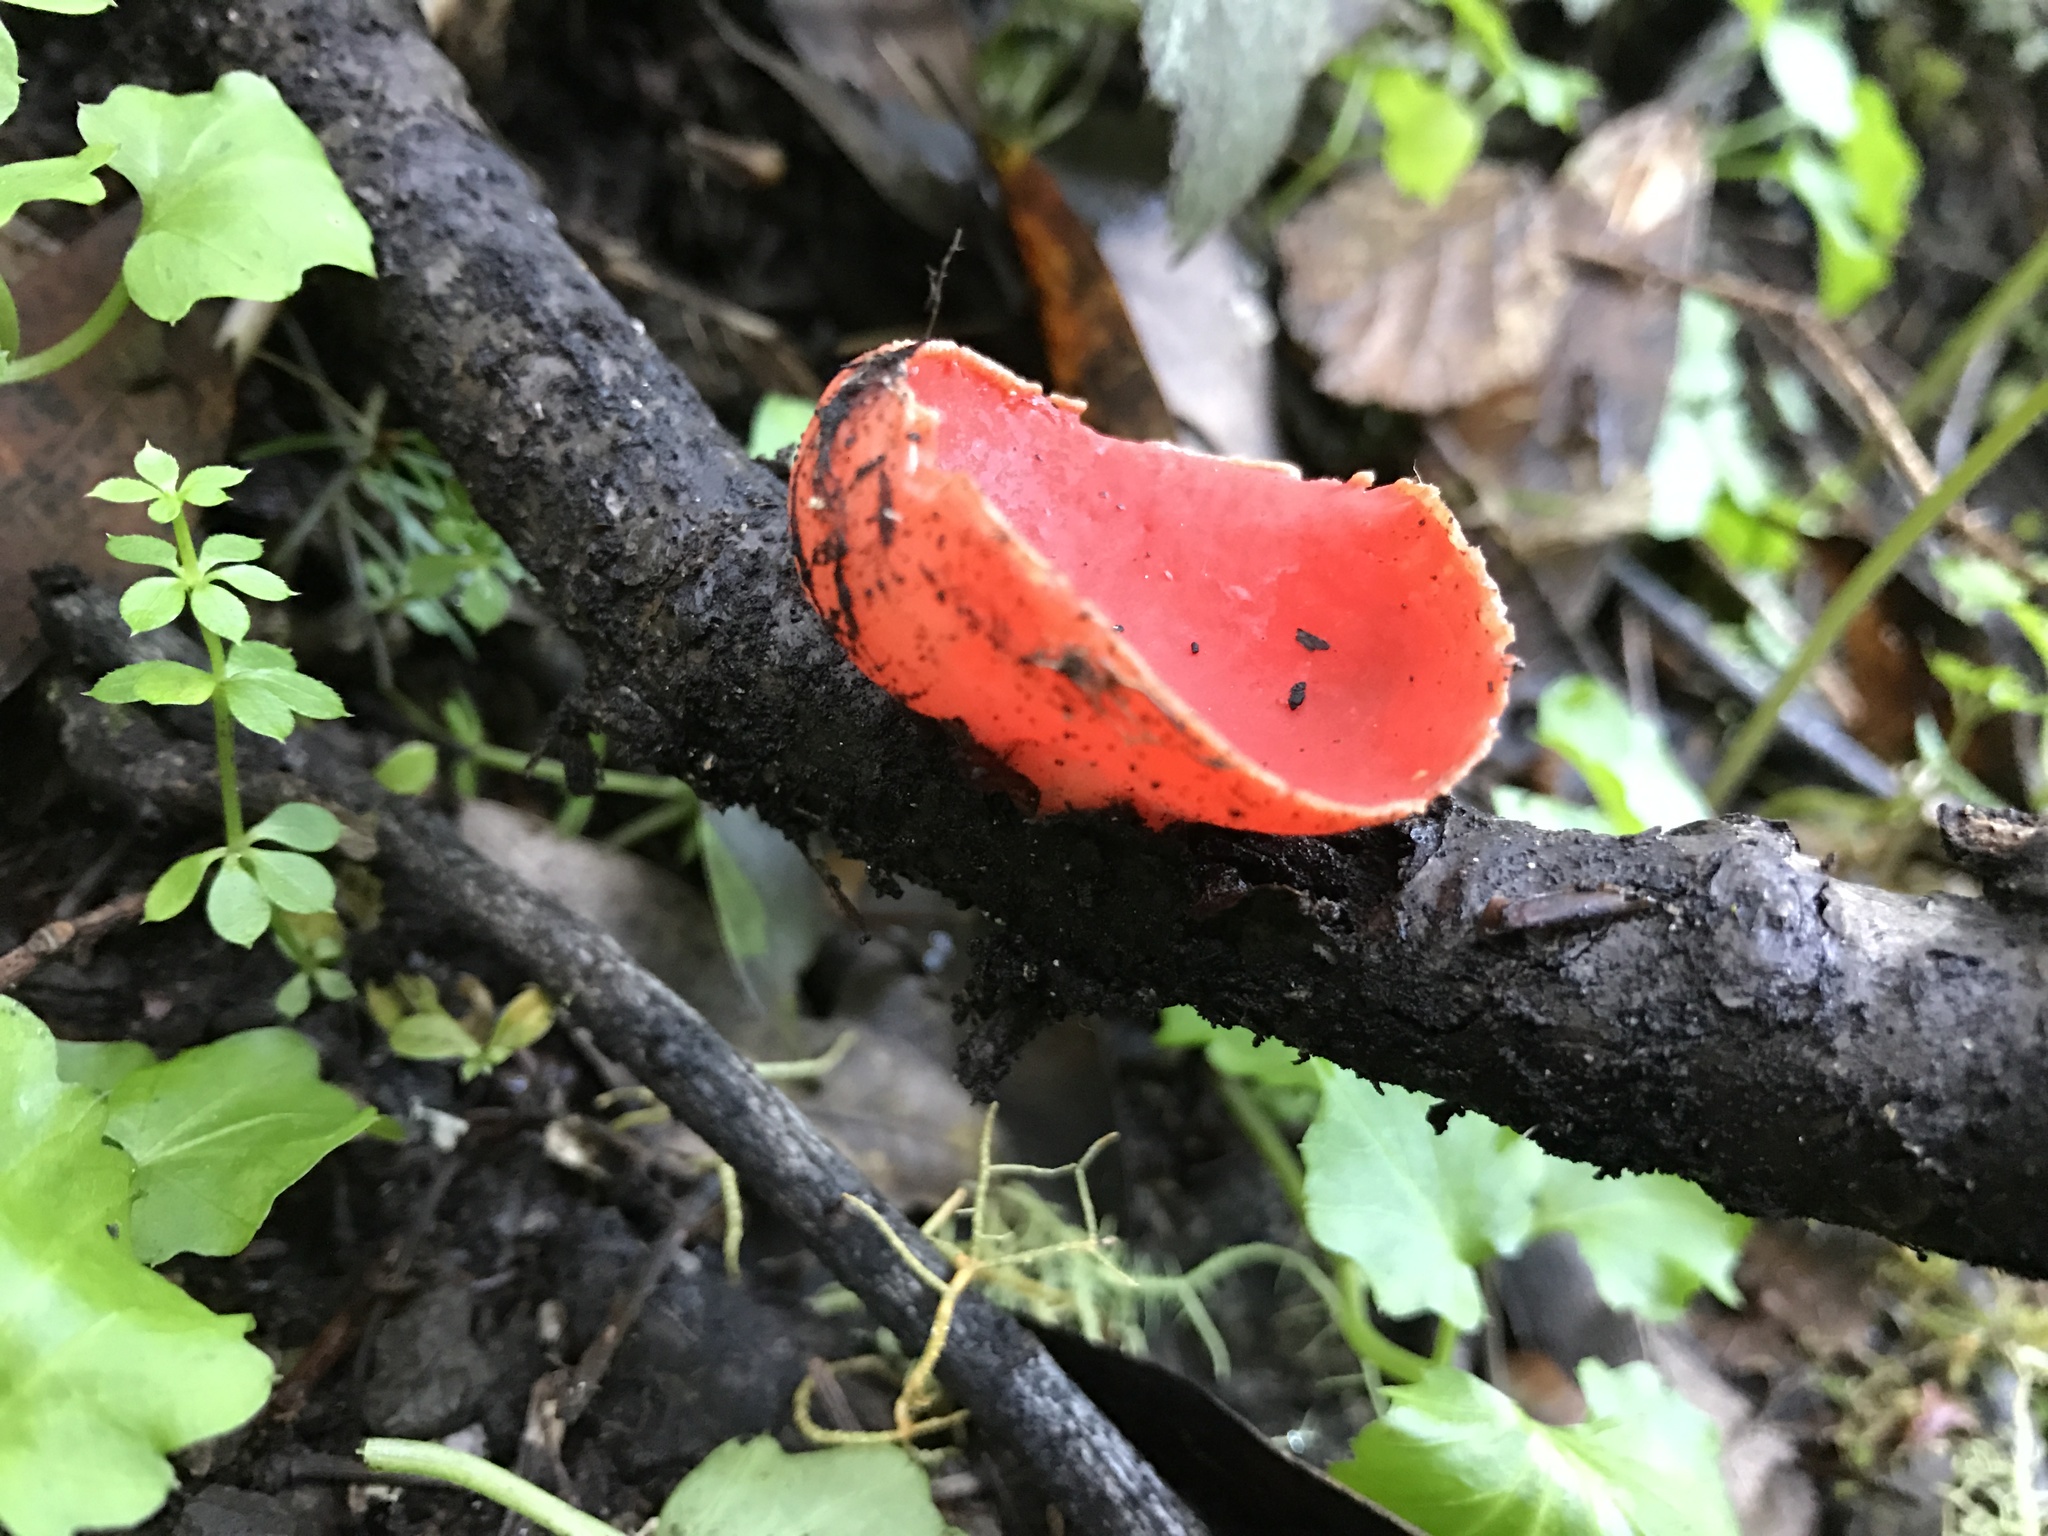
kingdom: Fungi
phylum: Ascomycota
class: Pezizomycetes
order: Pezizales
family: Sarcoscyphaceae
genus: Sarcoscypha
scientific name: Sarcoscypha coccinea
